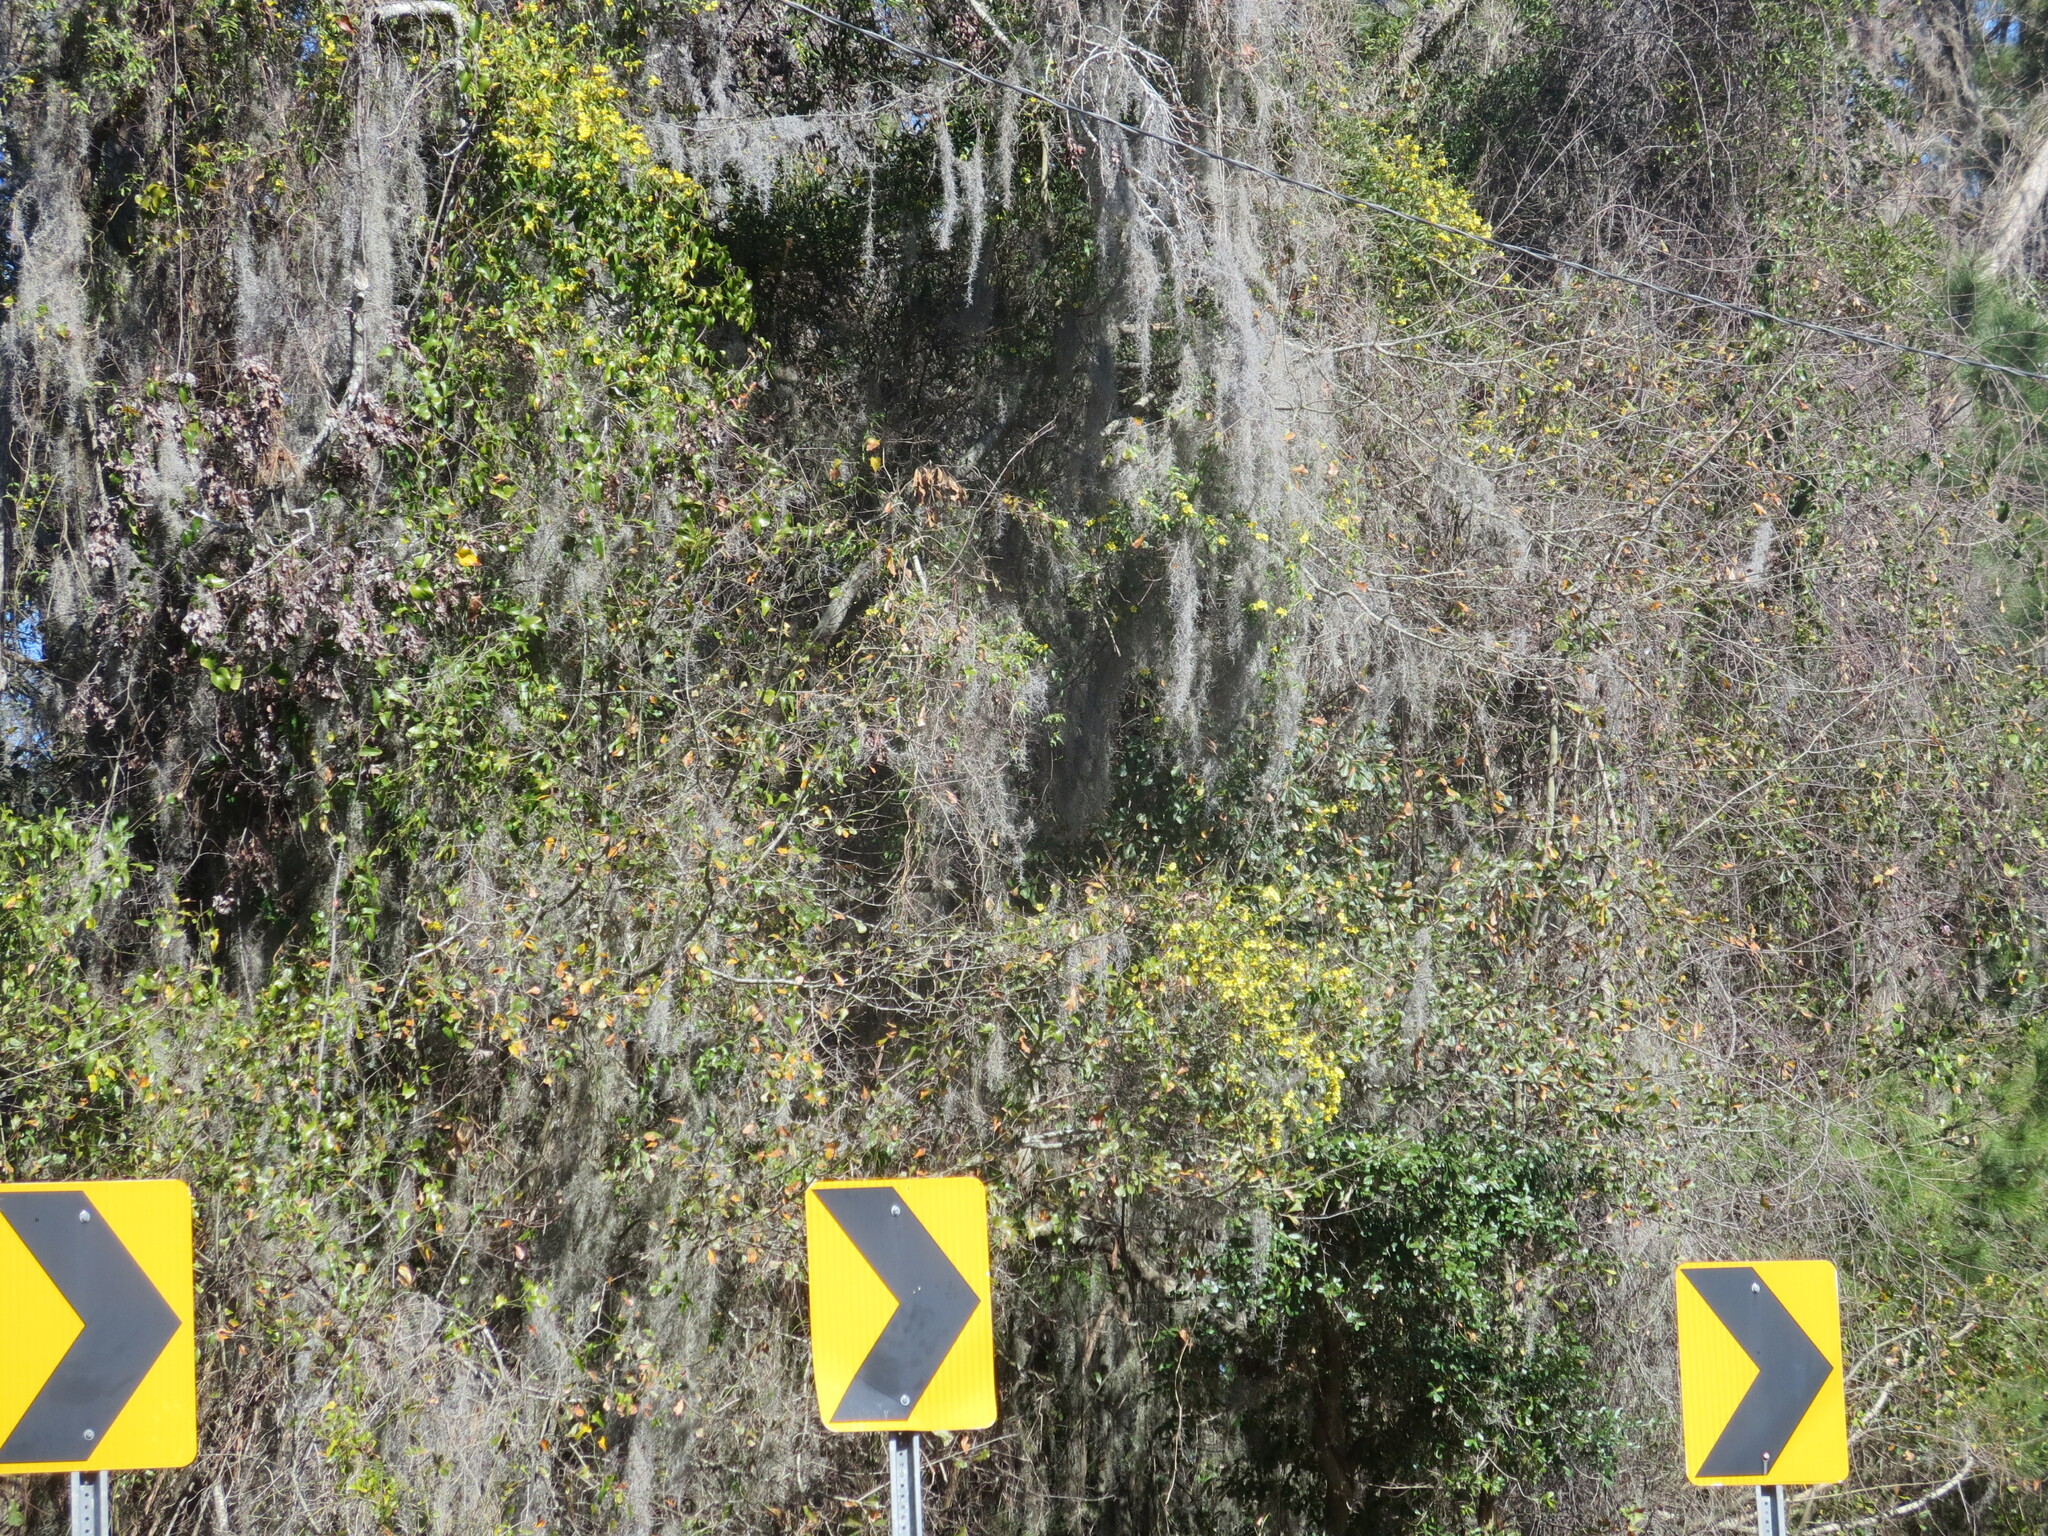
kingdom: Plantae
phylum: Tracheophyta
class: Magnoliopsida
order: Gentianales
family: Gelsemiaceae
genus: Gelsemium
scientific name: Gelsemium sempervirens
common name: Carolina-jasmine
